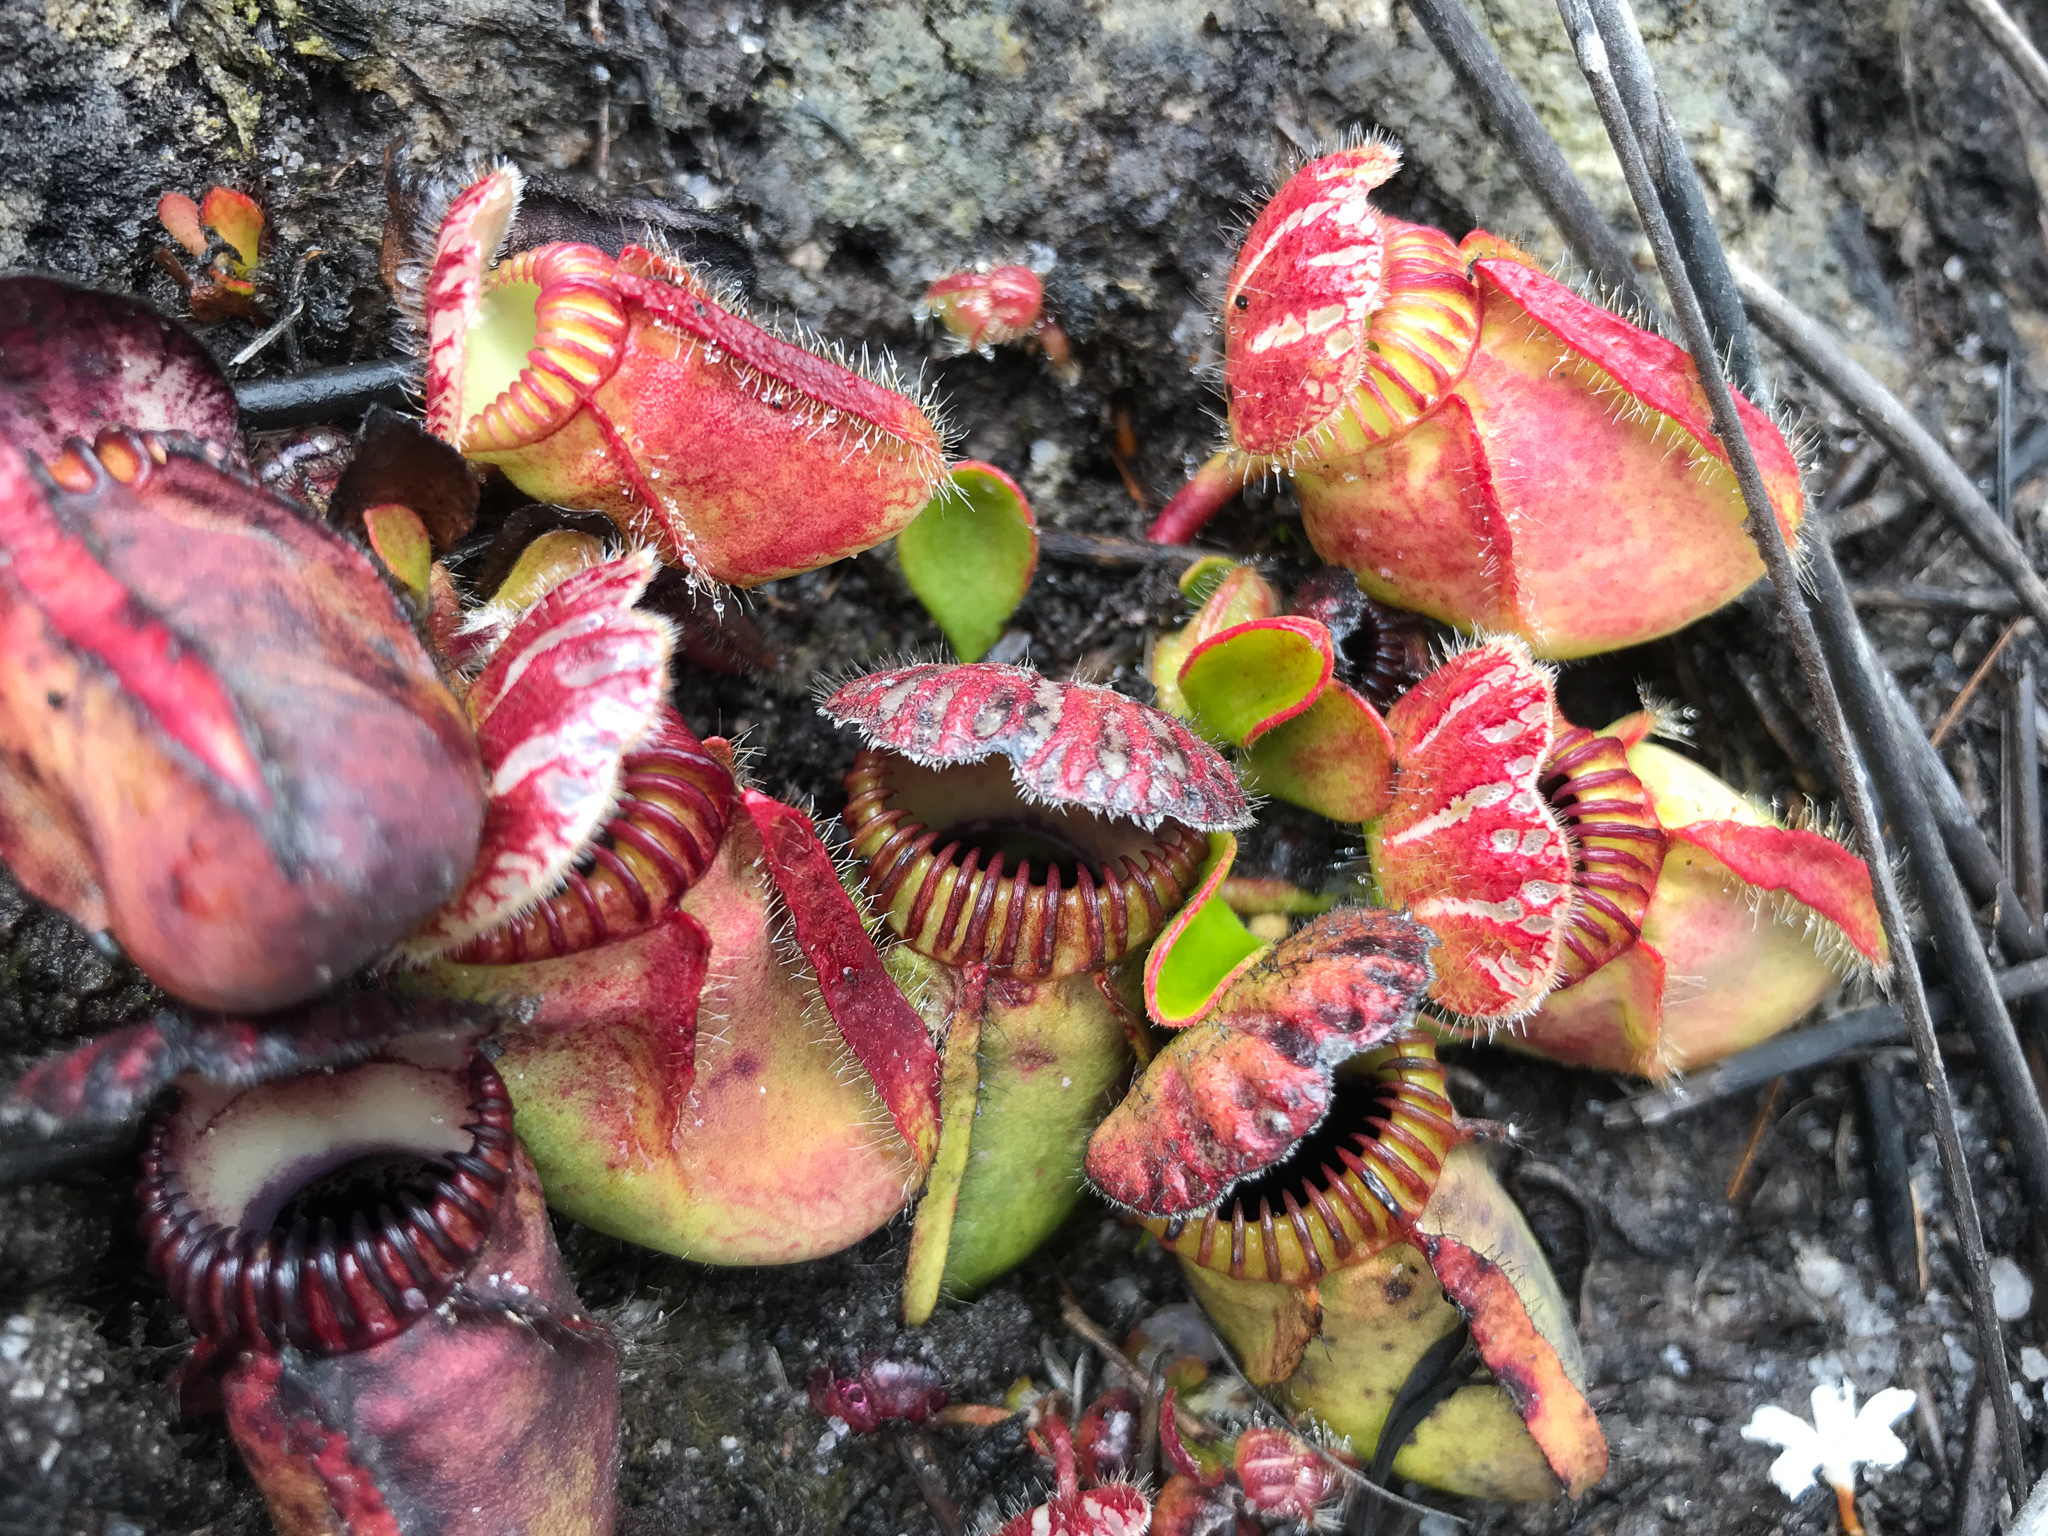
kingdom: Plantae
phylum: Tracheophyta
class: Magnoliopsida
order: Oxalidales
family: Cephalotaceae
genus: Cephalotus
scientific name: Cephalotus follicularis
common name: Australian pitcher plant
